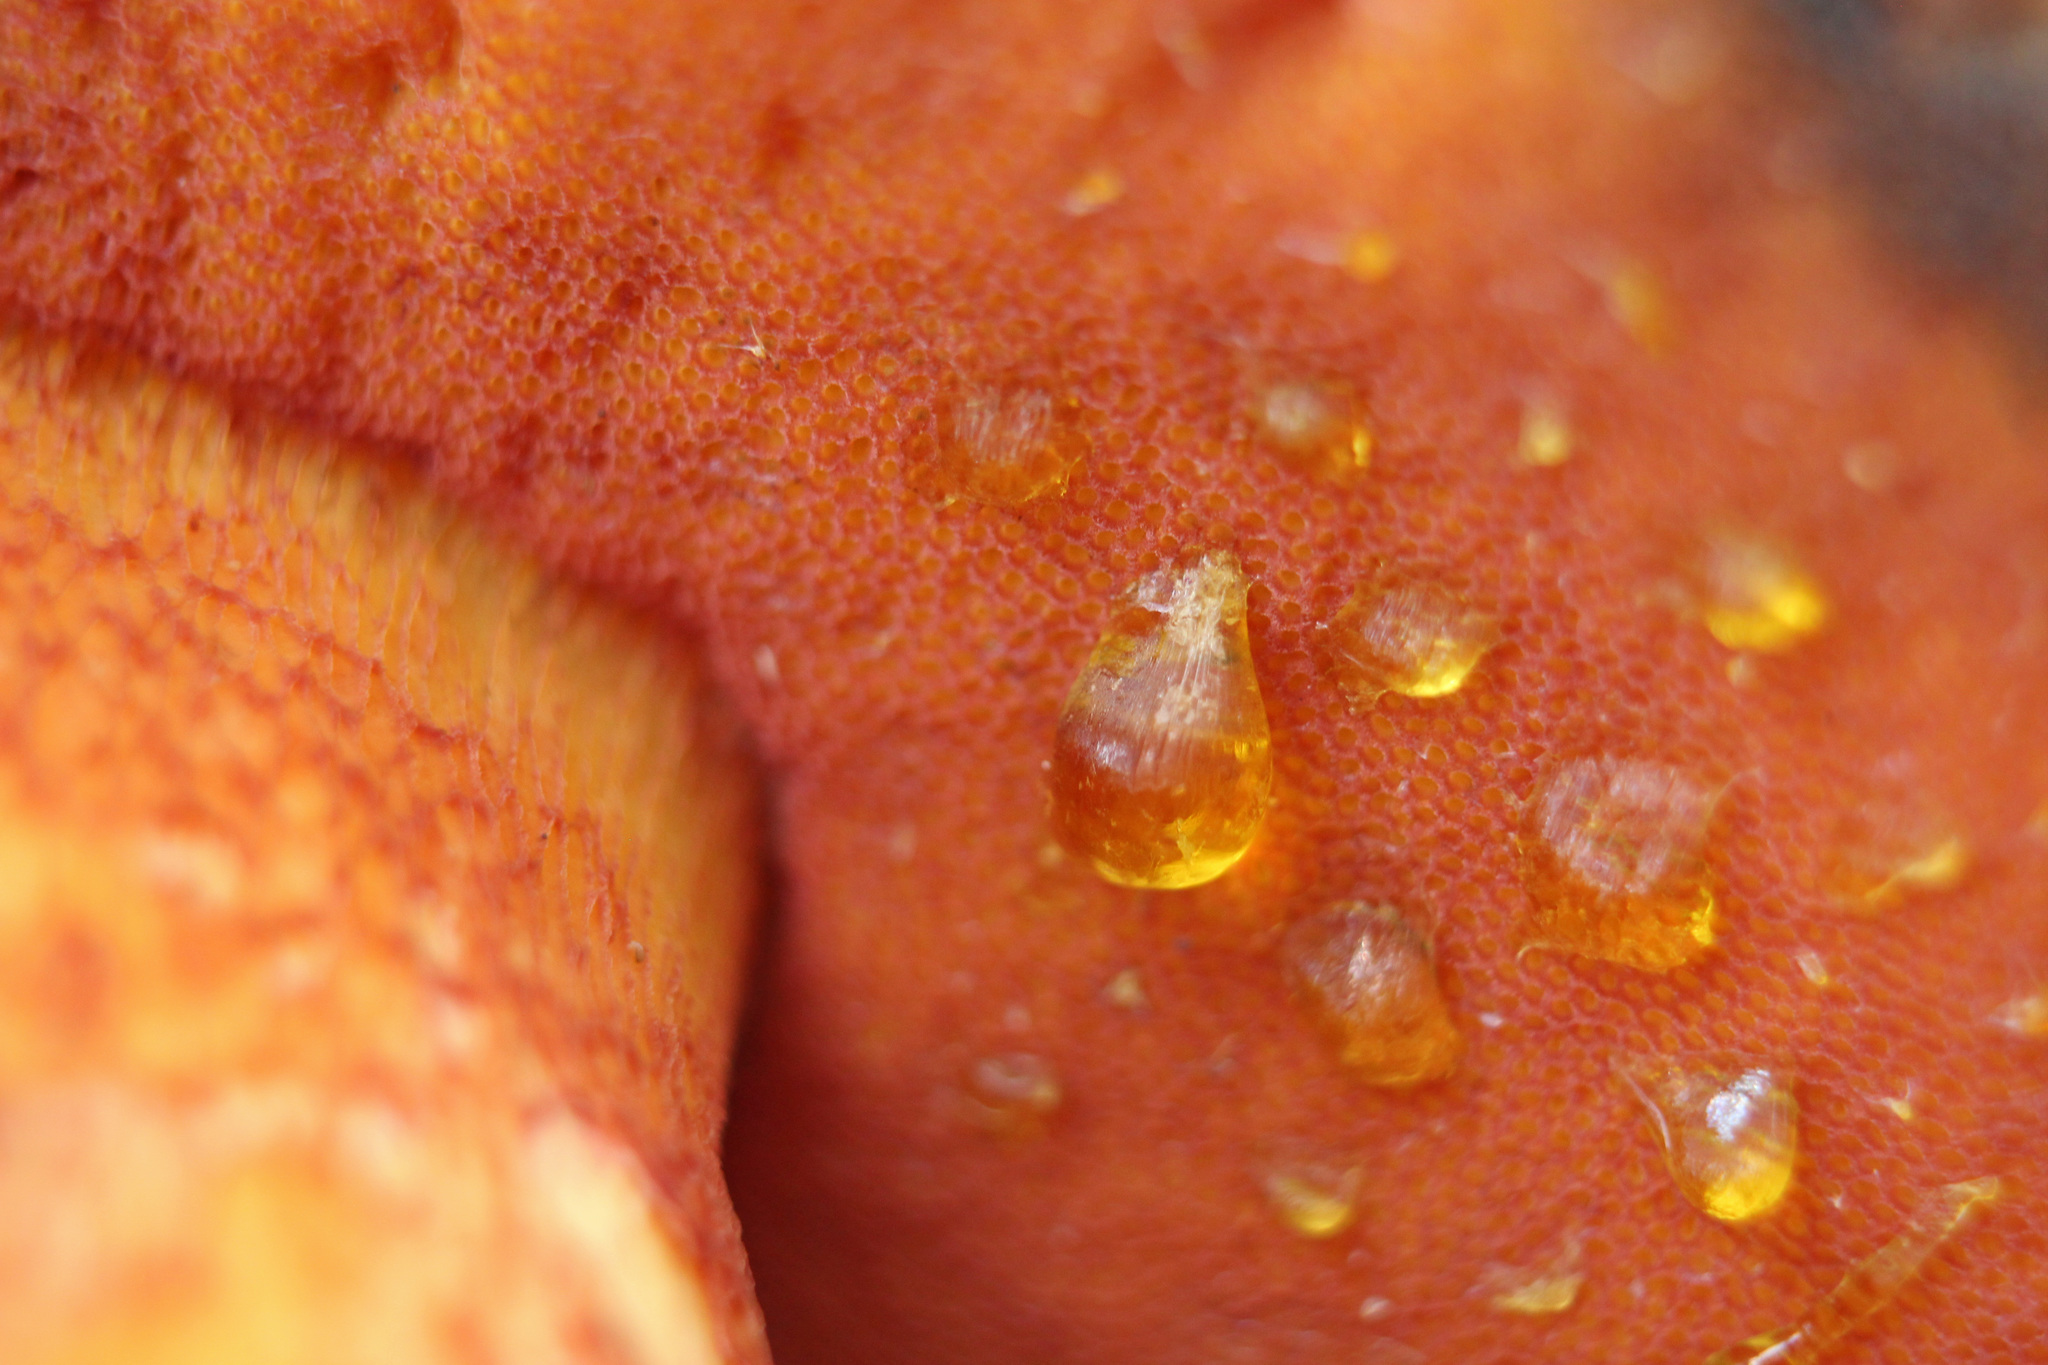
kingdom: Fungi
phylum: Basidiomycota
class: Agaricomycetes
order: Boletales
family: Boletaceae
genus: Suillellus
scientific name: Suillellus permagnificus
